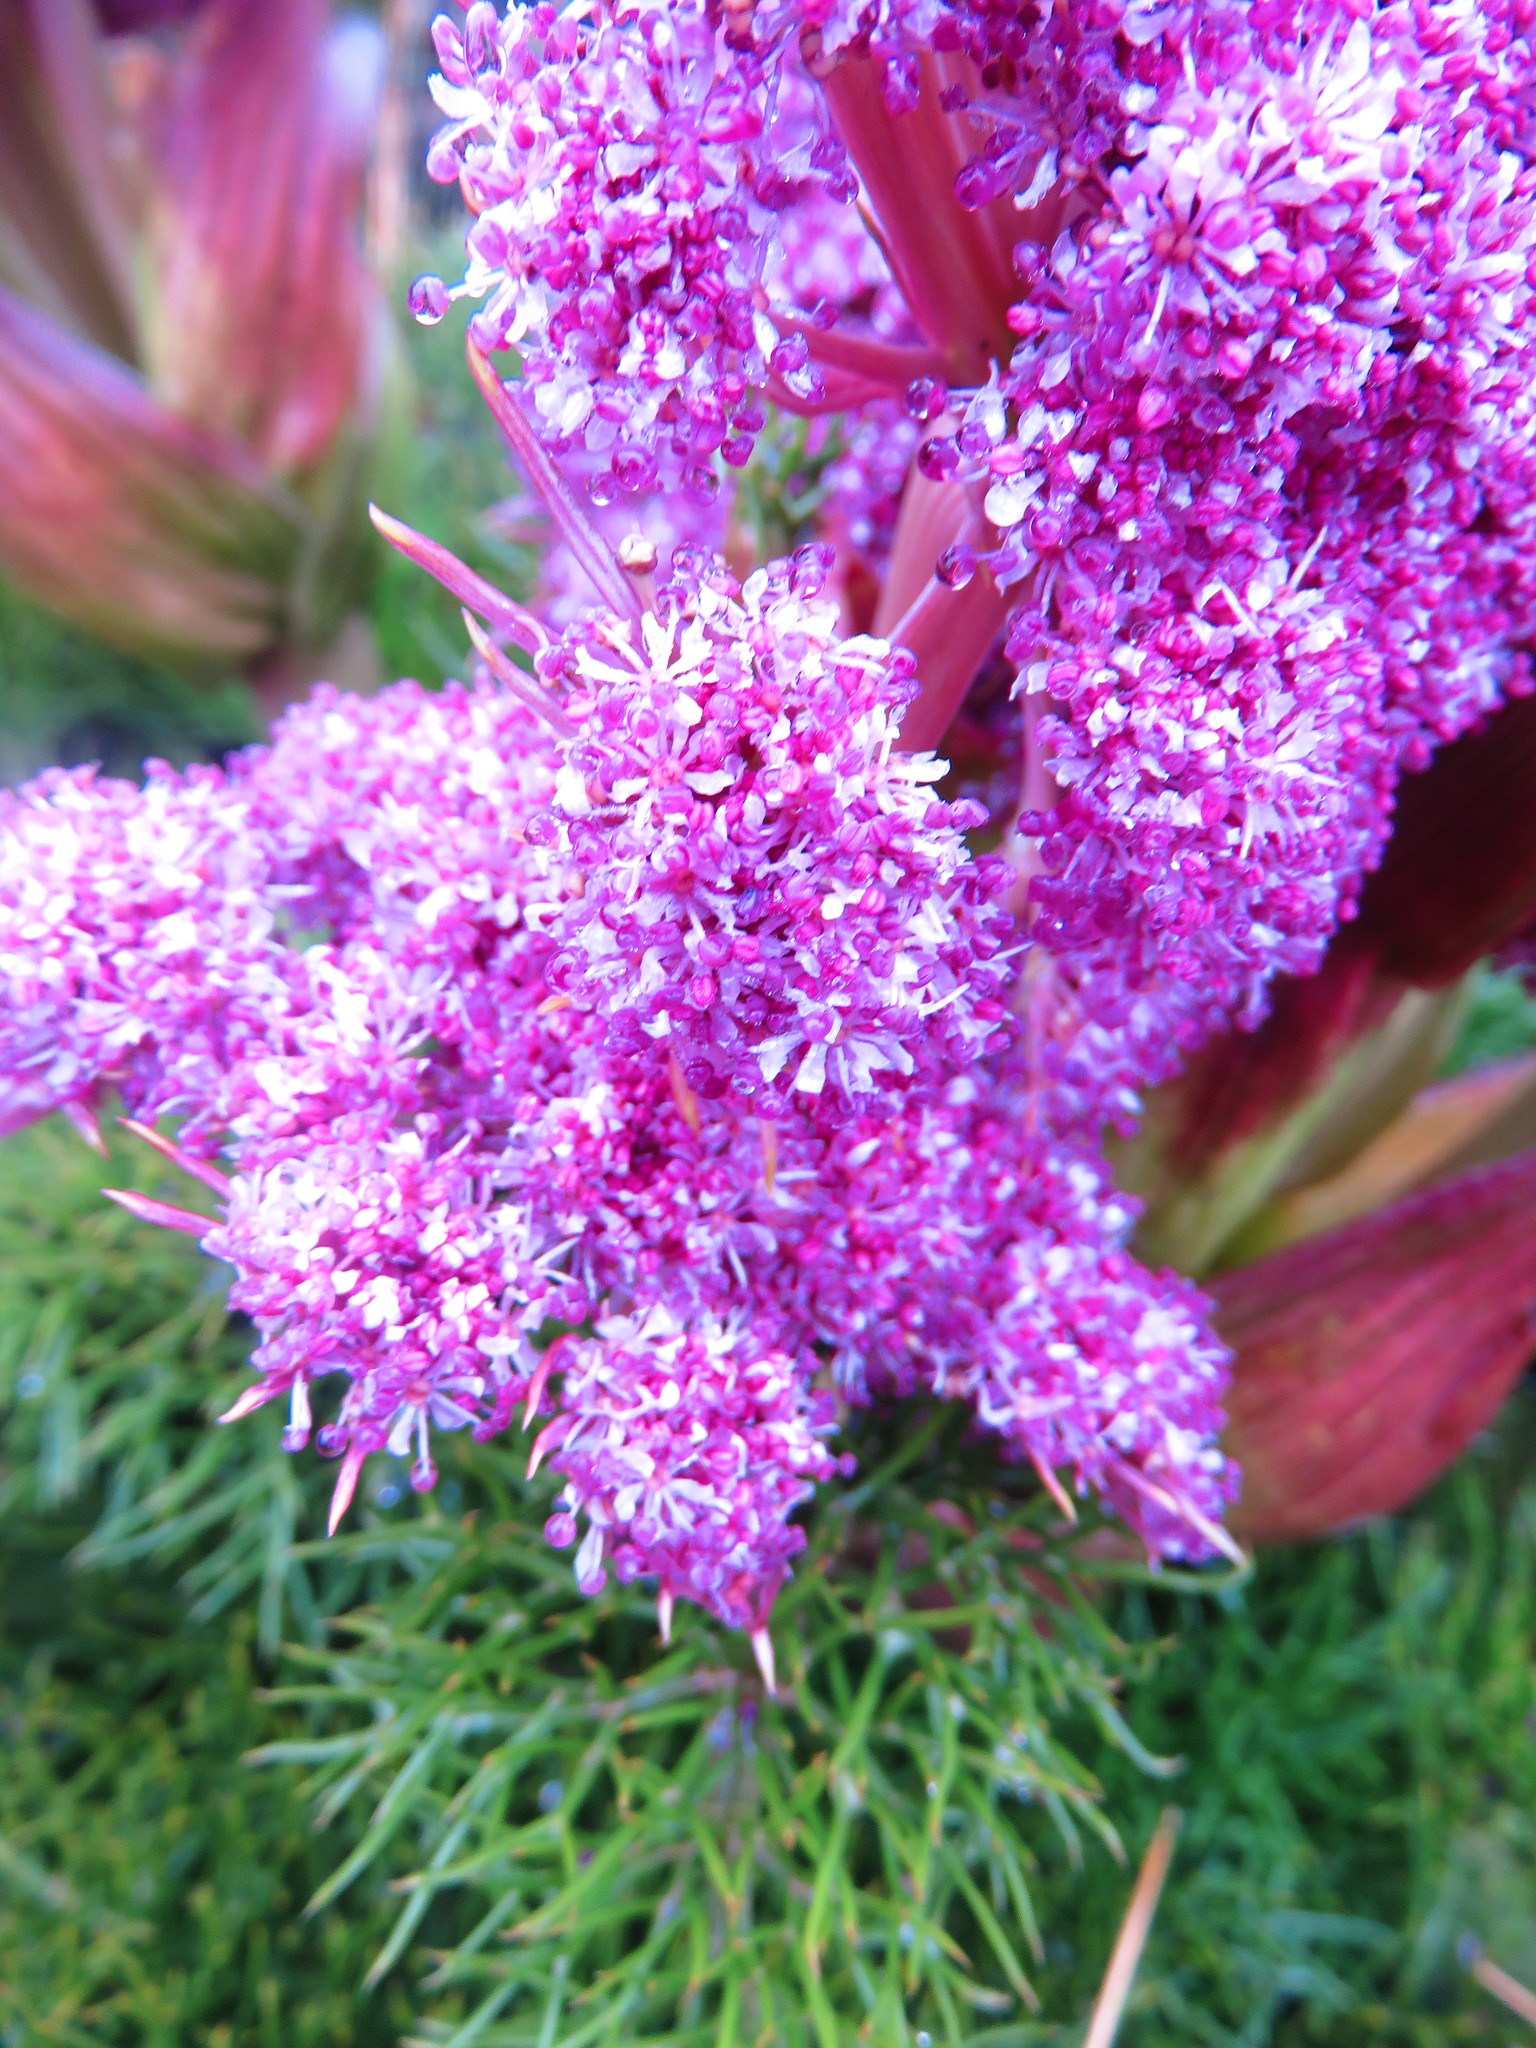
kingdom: Plantae
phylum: Tracheophyta
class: Magnoliopsida
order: Apiales
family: Apiaceae
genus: Anisotome
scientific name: Anisotome antipoda
